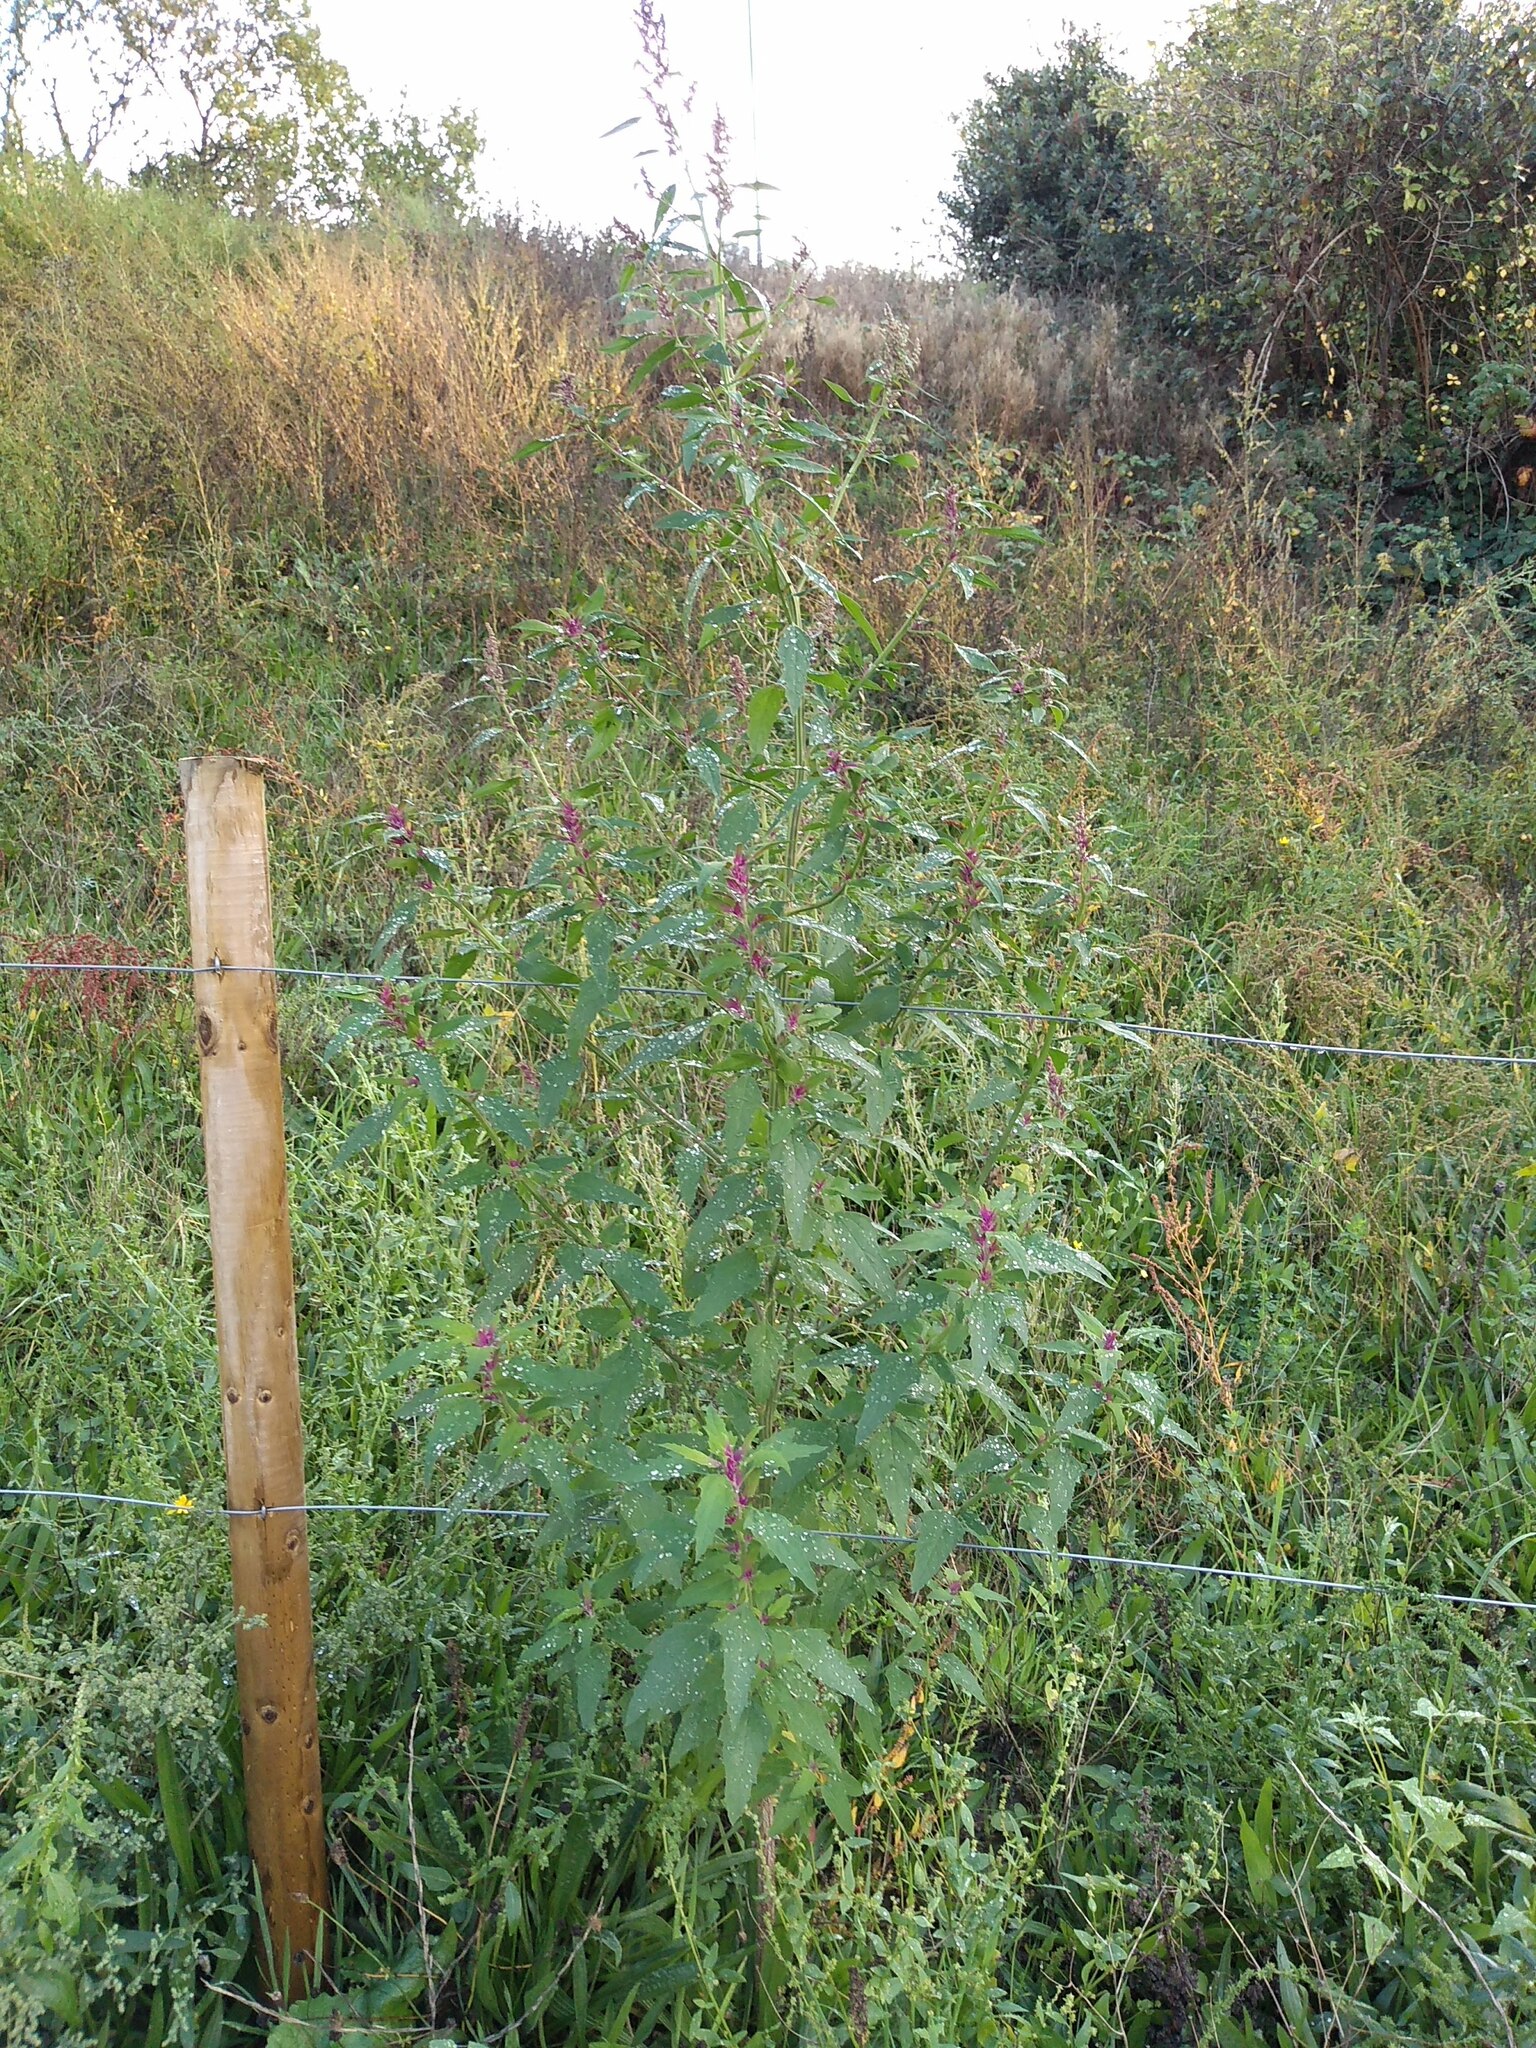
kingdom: Plantae
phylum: Tracheophyta
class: Magnoliopsida
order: Caryophyllales
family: Amaranthaceae
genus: Chenopodium
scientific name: Chenopodium giganteum
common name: Magentaspreen
